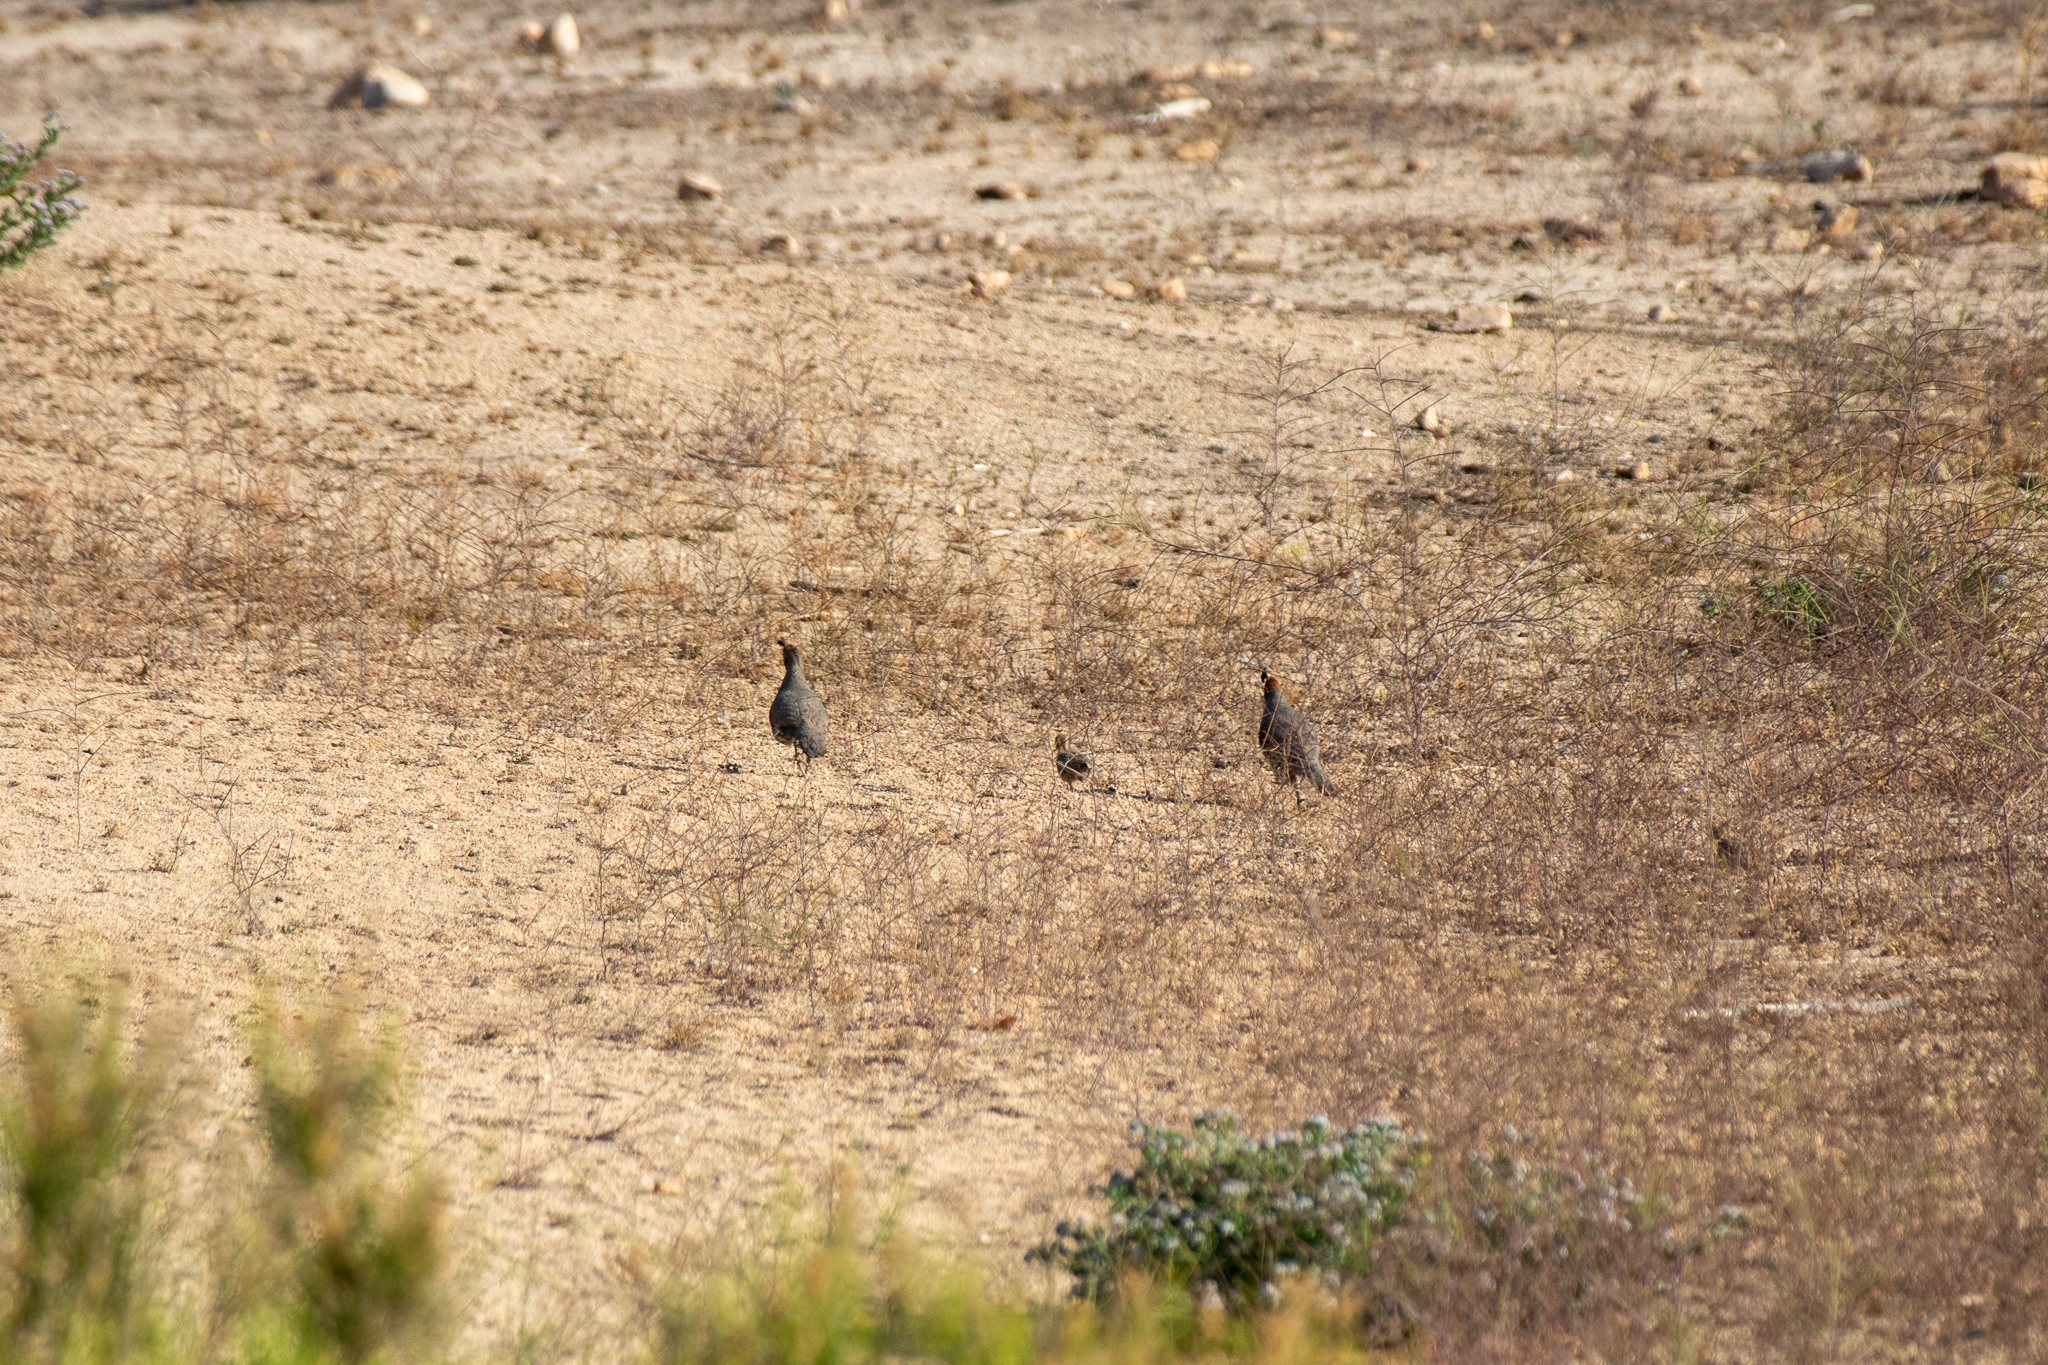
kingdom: Animalia
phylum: Chordata
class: Aves
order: Galliformes
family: Odontophoridae
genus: Callipepla
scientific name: Callipepla gambelii
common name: Gambel's quail
